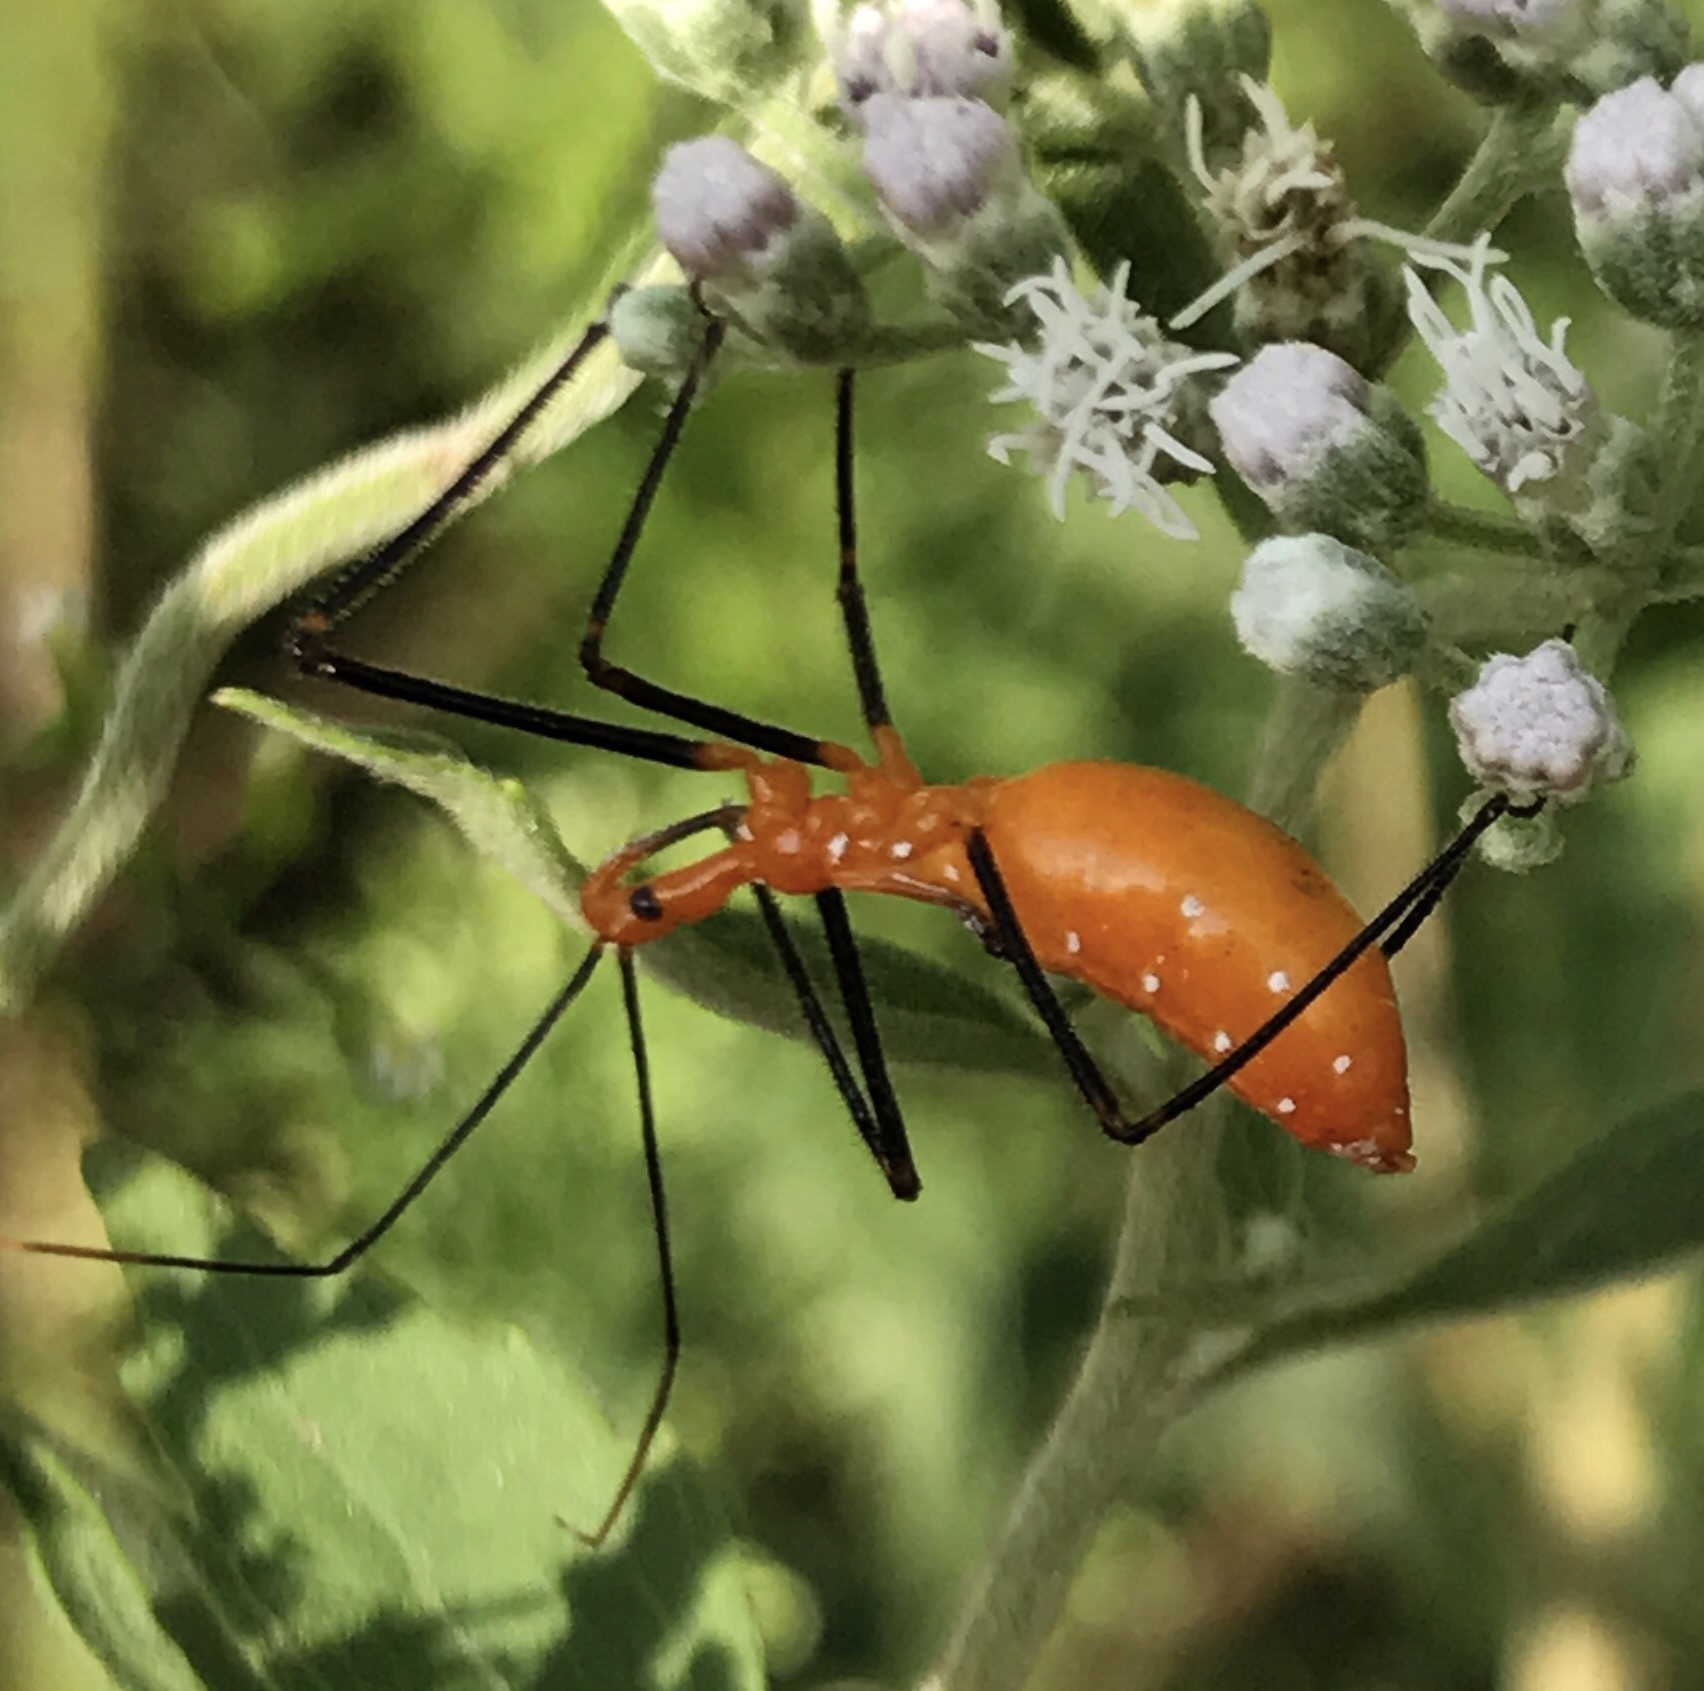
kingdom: Animalia
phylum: Arthropoda
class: Insecta
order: Hemiptera
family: Reduviidae
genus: Zelus
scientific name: Zelus longipes
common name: Milkweed assassin bug
